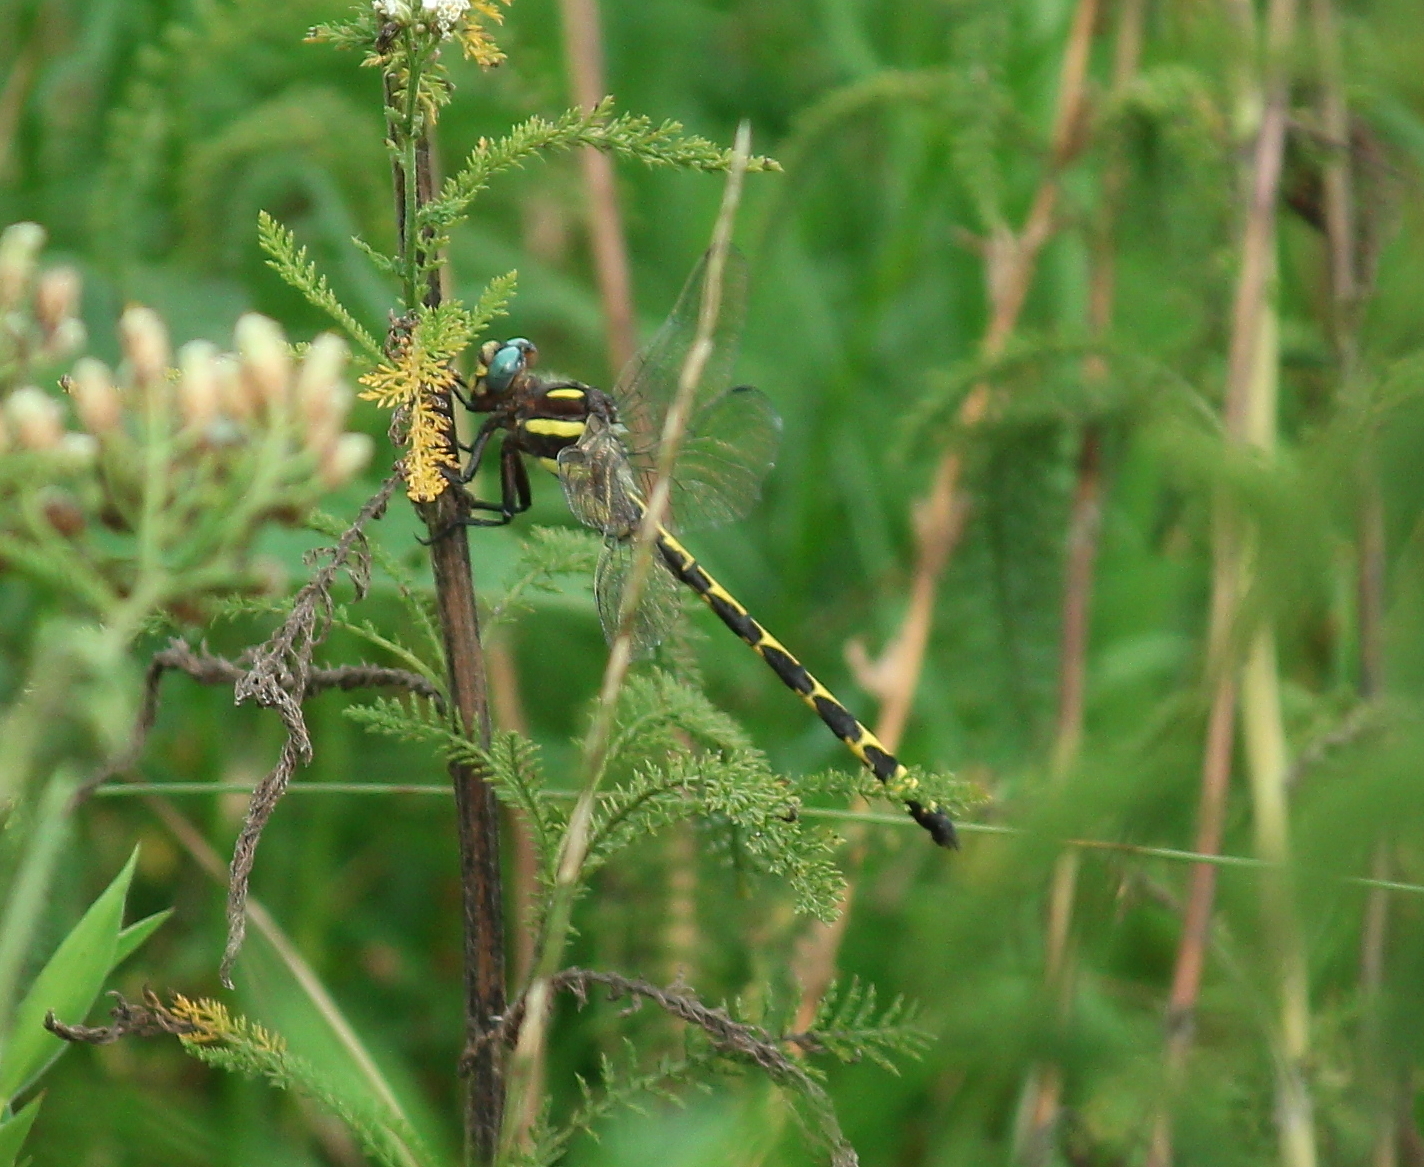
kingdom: Animalia
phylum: Arthropoda
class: Insecta
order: Odonata
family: Cordulegastridae
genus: Cordulegaster
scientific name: Cordulegaster obliqua
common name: Arrowhead spiketail
